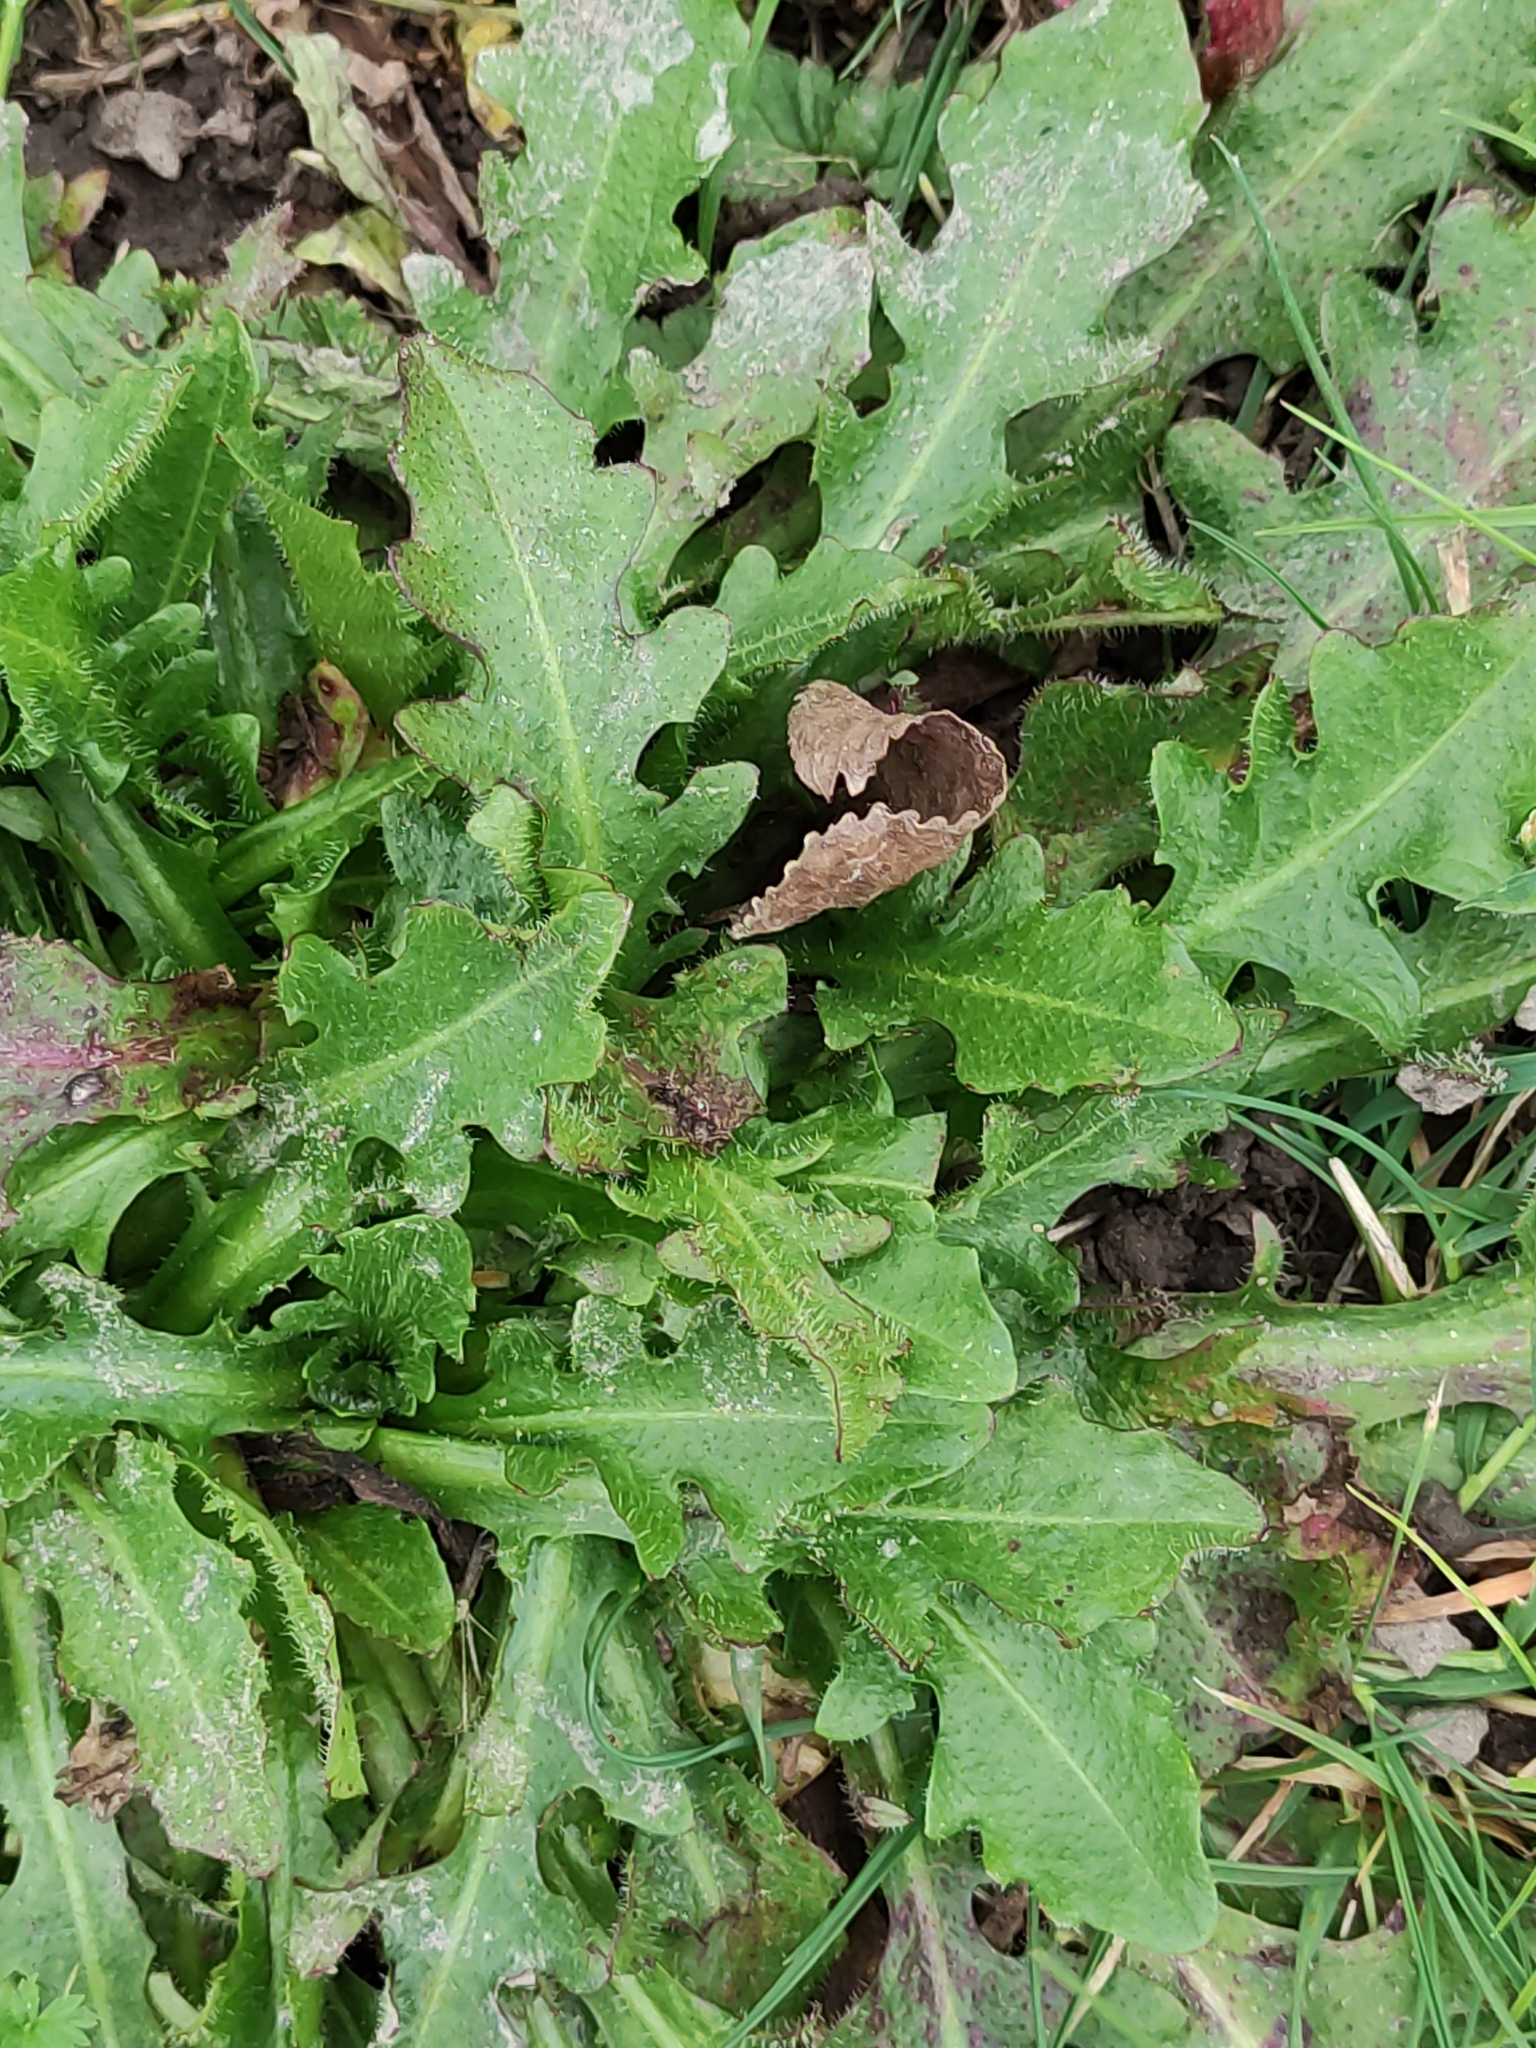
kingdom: Plantae
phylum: Tracheophyta
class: Magnoliopsida
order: Asterales
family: Asteraceae
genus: Hypochaeris
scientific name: Hypochaeris radicata
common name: Flatweed
